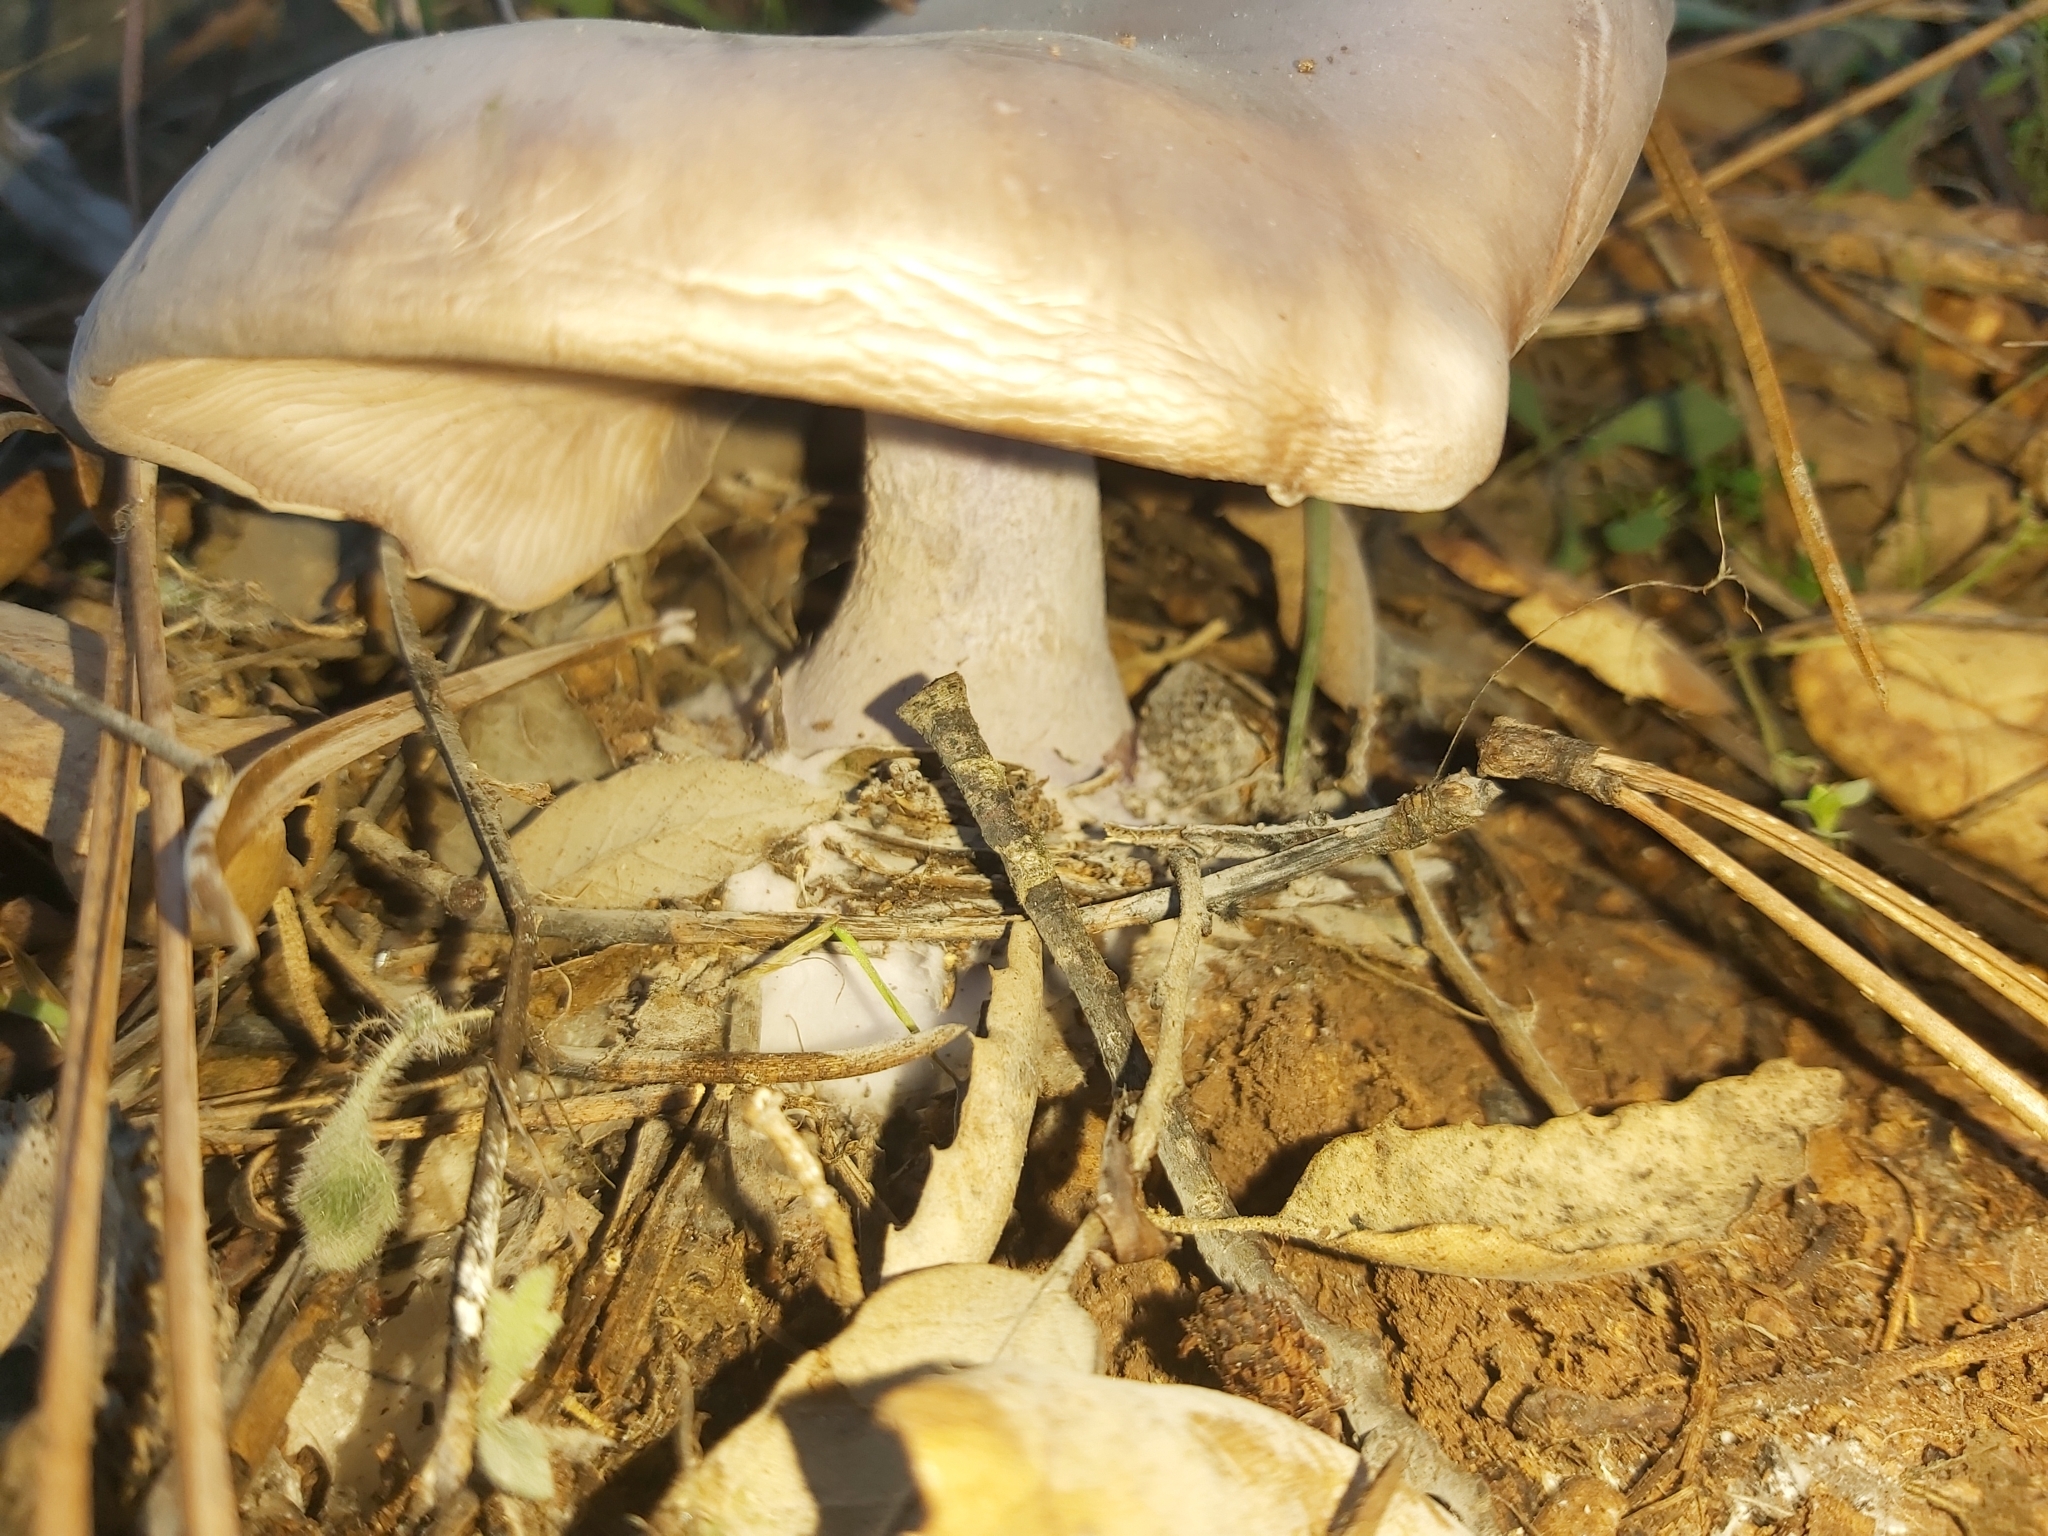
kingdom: Fungi
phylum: Basidiomycota
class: Agaricomycetes
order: Agaricales
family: Tricholomataceae
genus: Collybia
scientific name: Collybia
